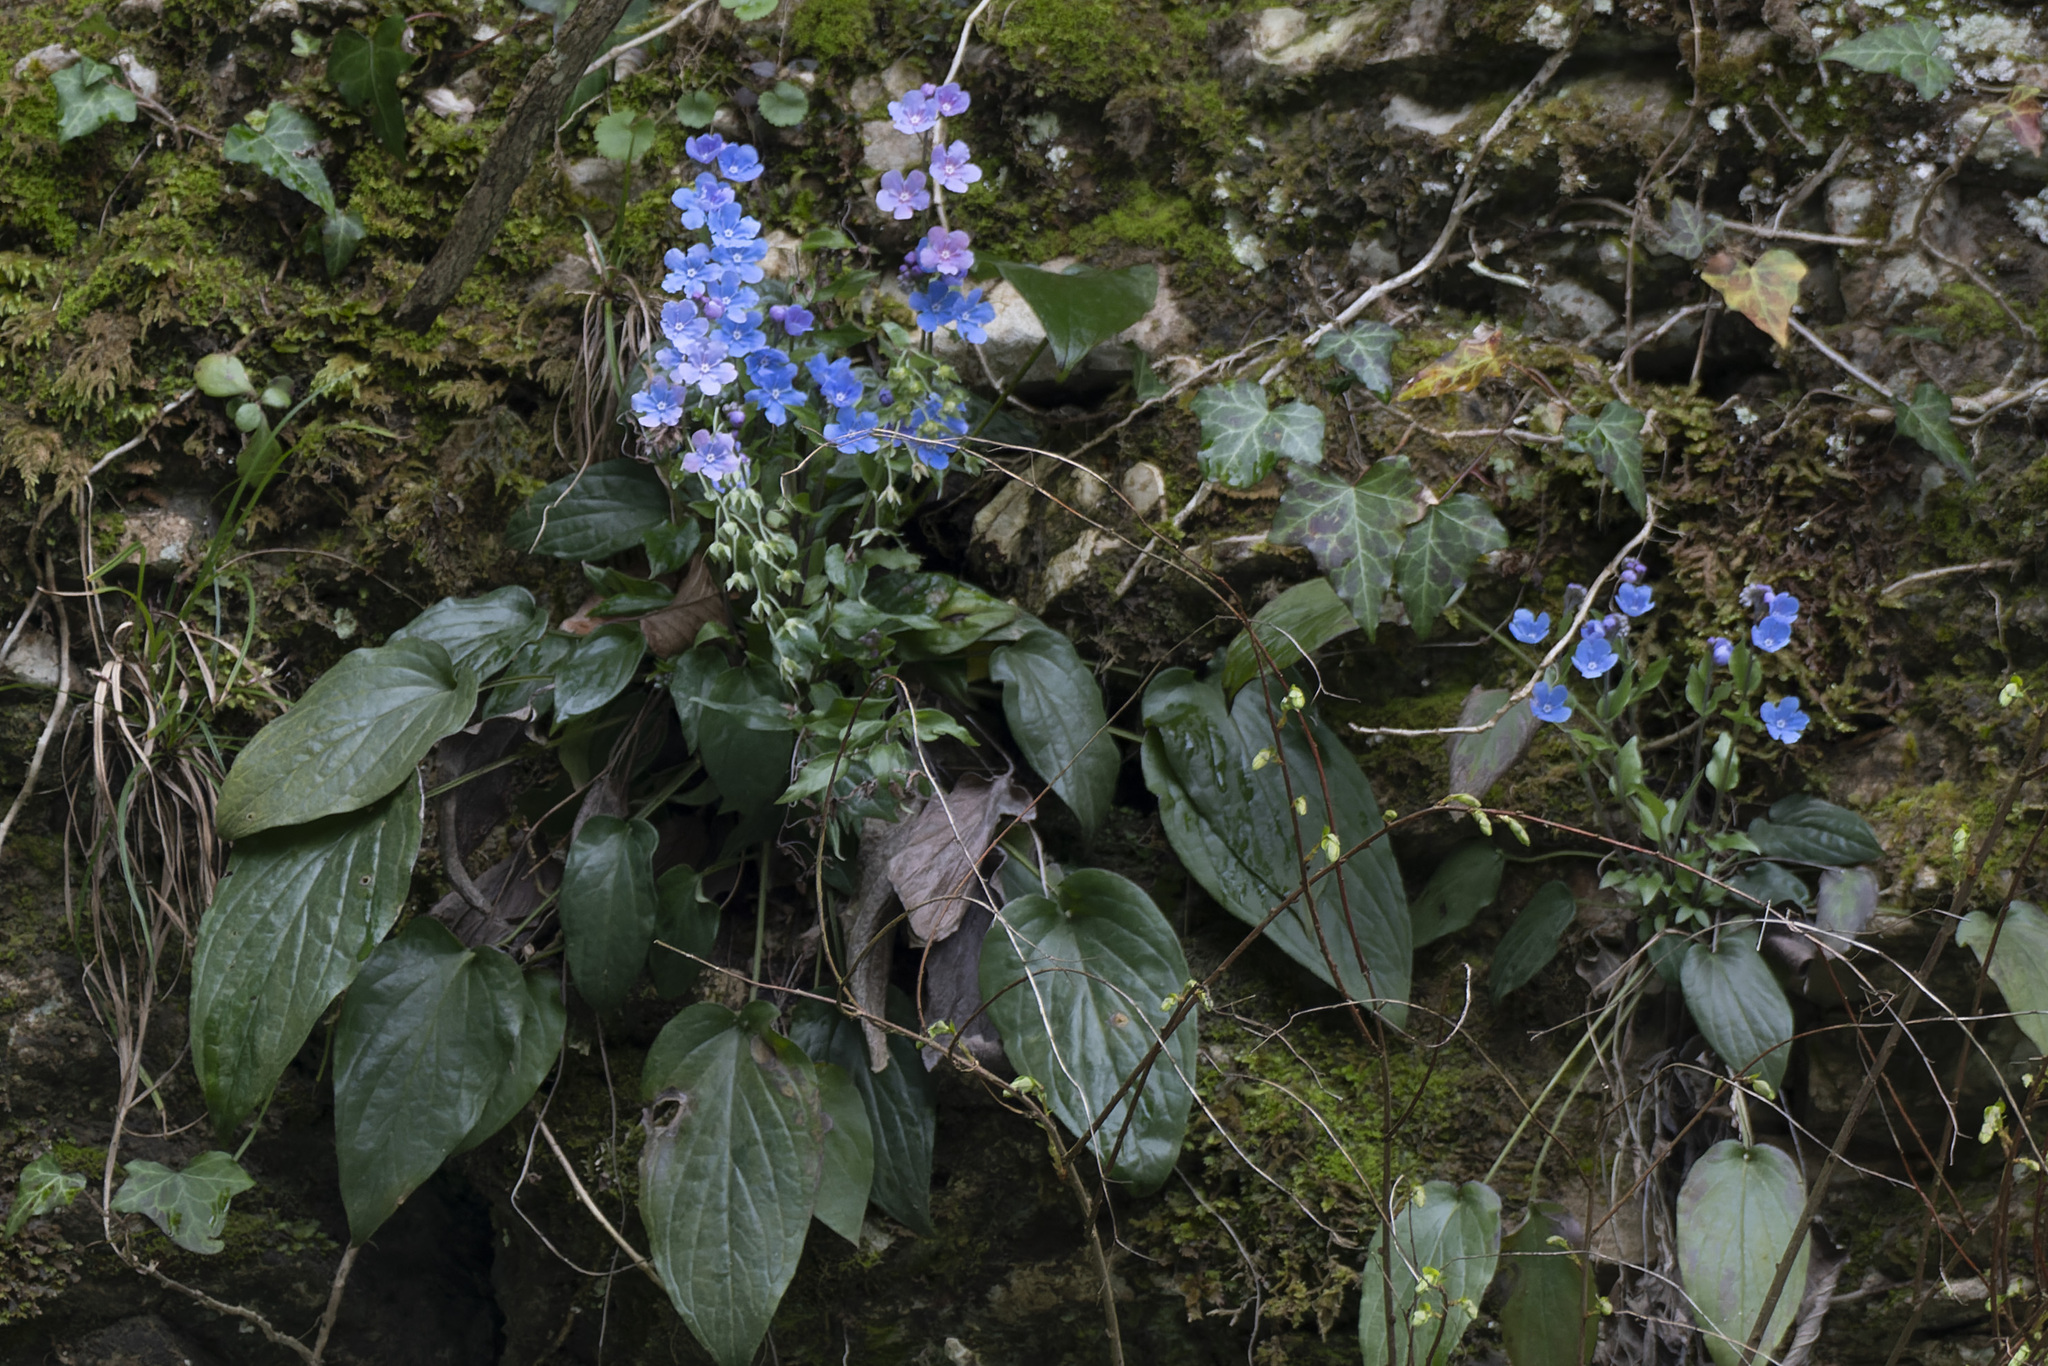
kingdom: Plantae
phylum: Tracheophyta
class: Magnoliopsida
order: Boraginales
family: Boraginaceae
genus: Omphalodes
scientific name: Omphalodes cappadocica
